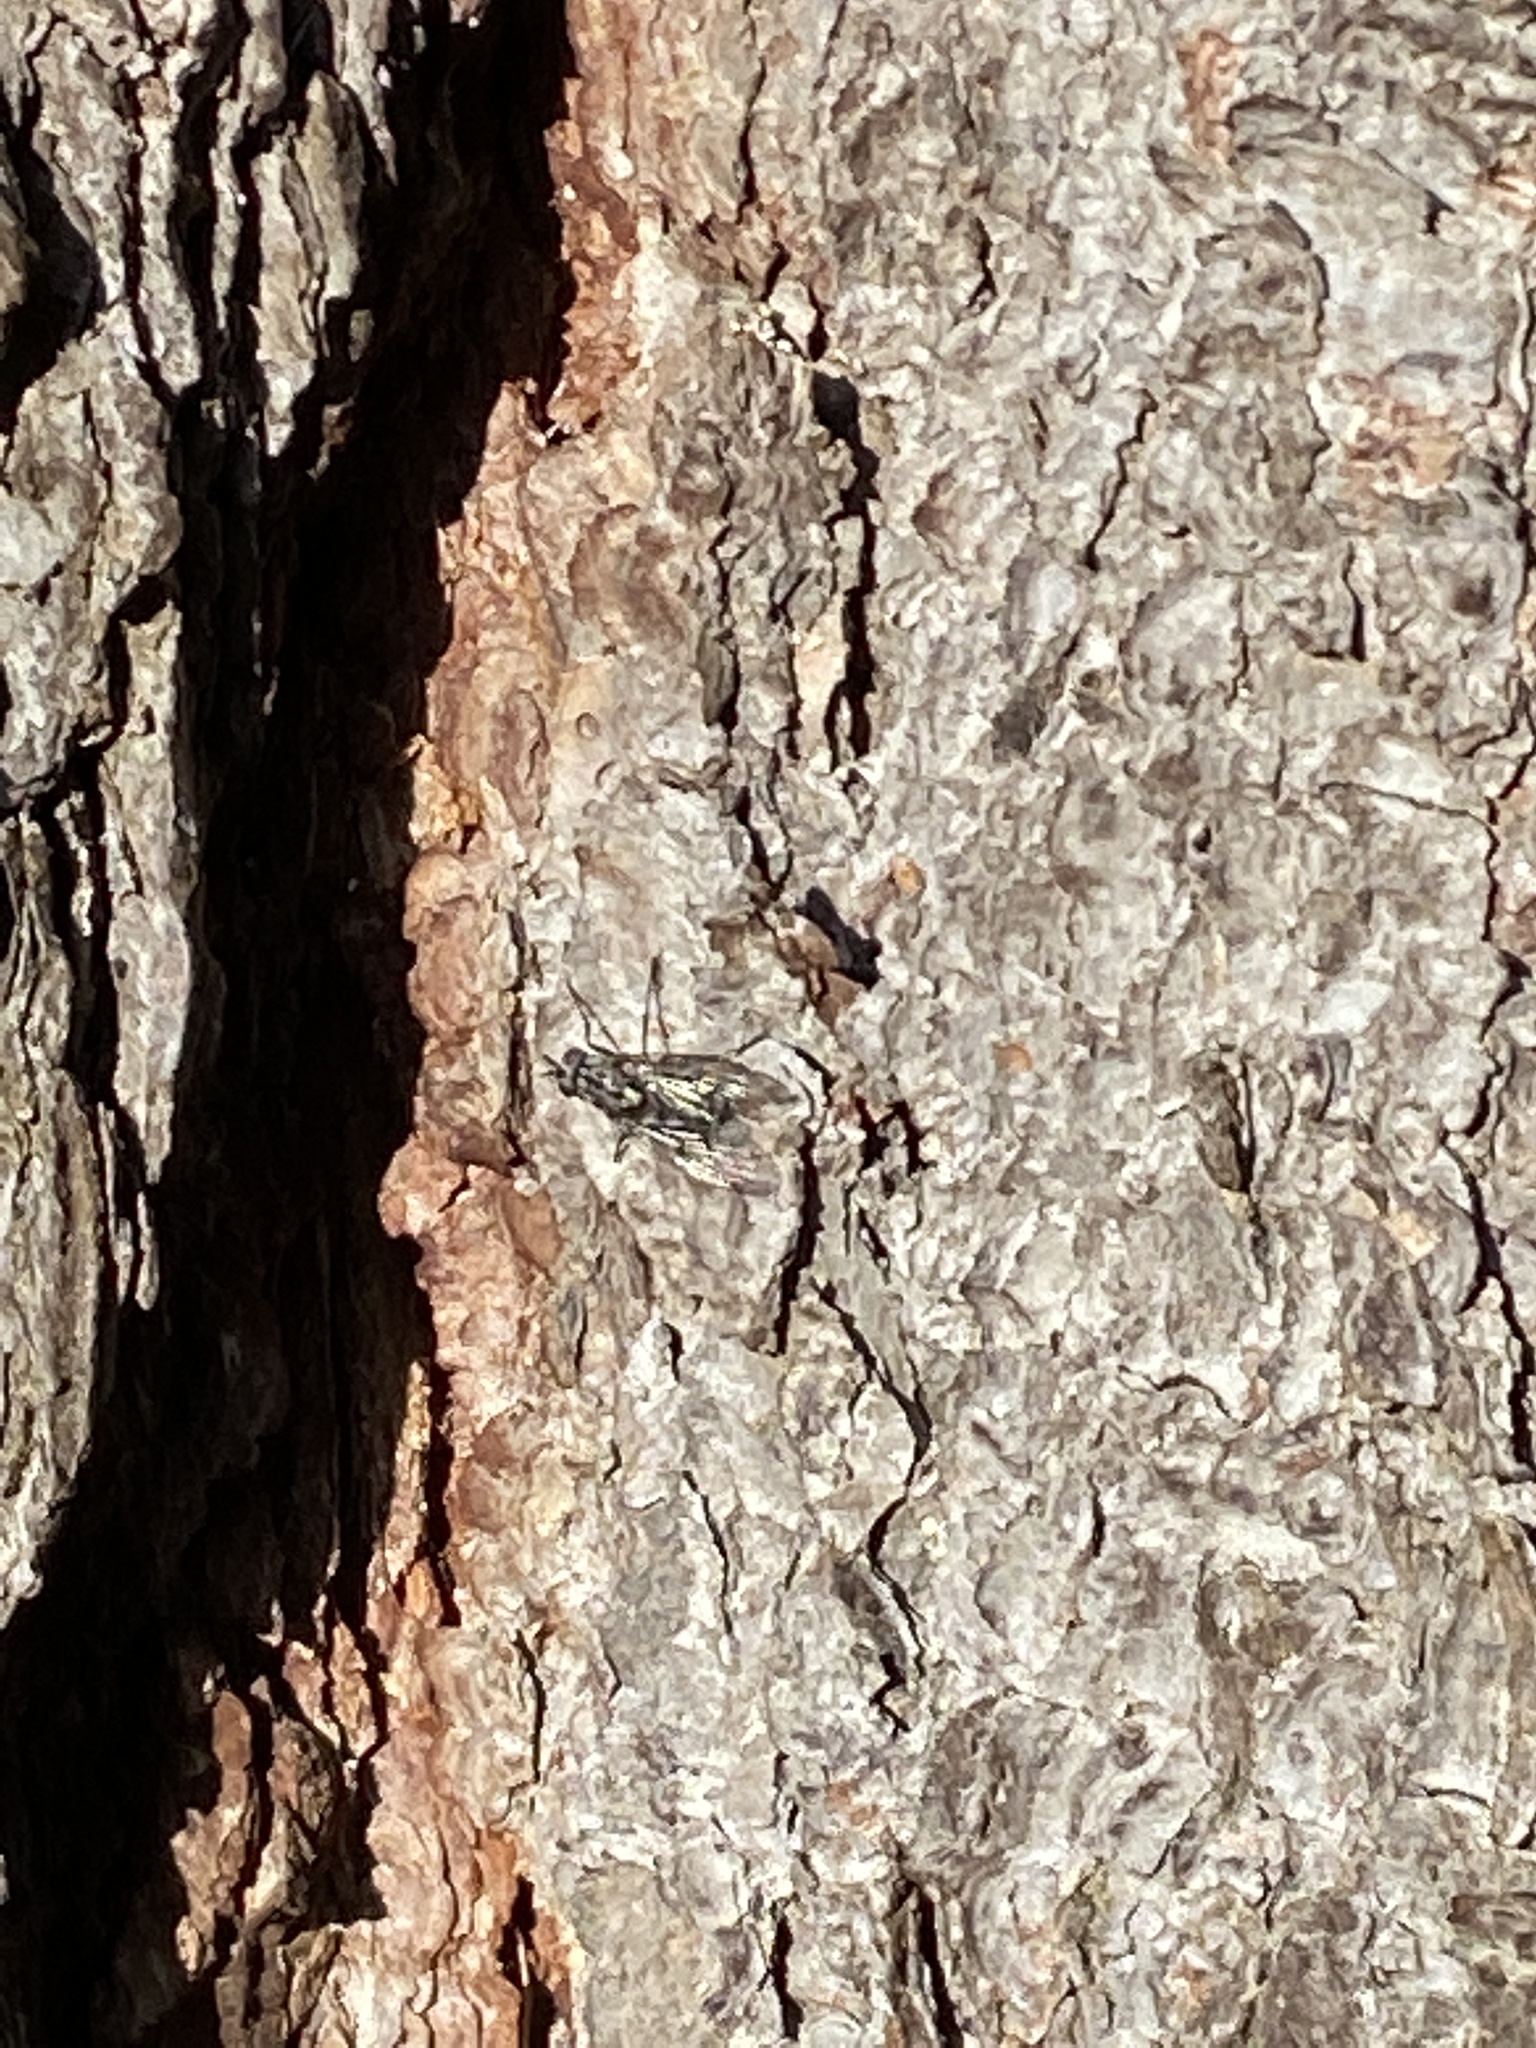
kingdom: Animalia
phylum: Arthropoda
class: Insecta
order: Diptera
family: Muscidae
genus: Phaonia
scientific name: Phaonia trimaculata
